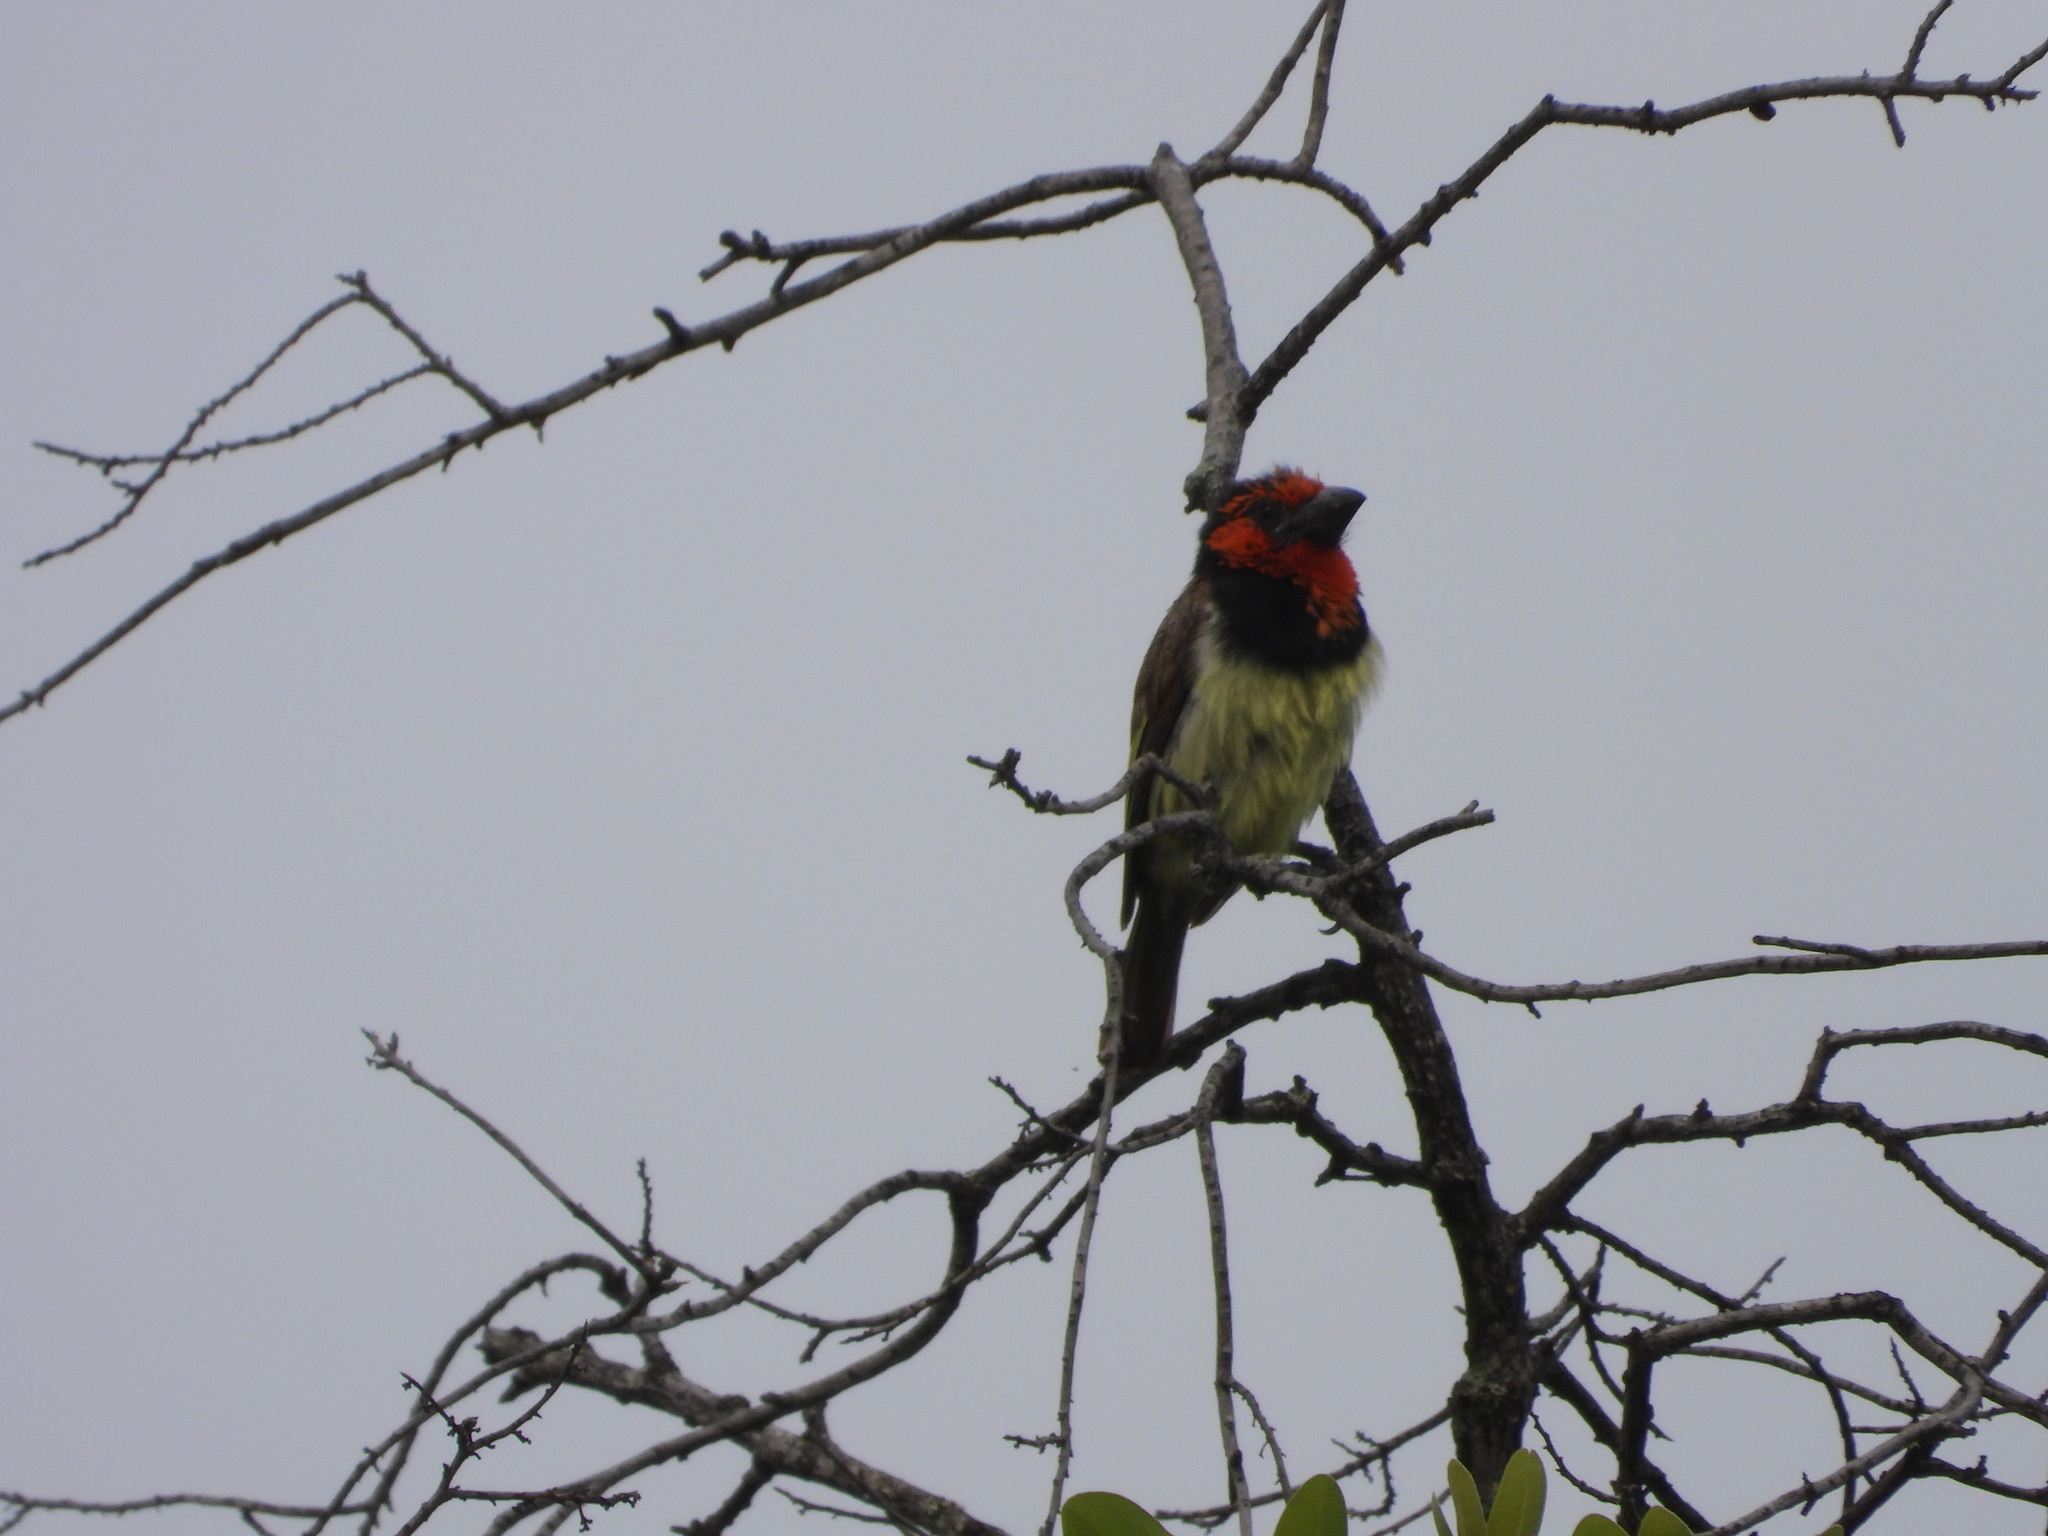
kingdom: Animalia
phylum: Chordata
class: Aves
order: Piciformes
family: Lybiidae
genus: Lybius
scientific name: Lybius torquatus
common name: Black-collared barbet
